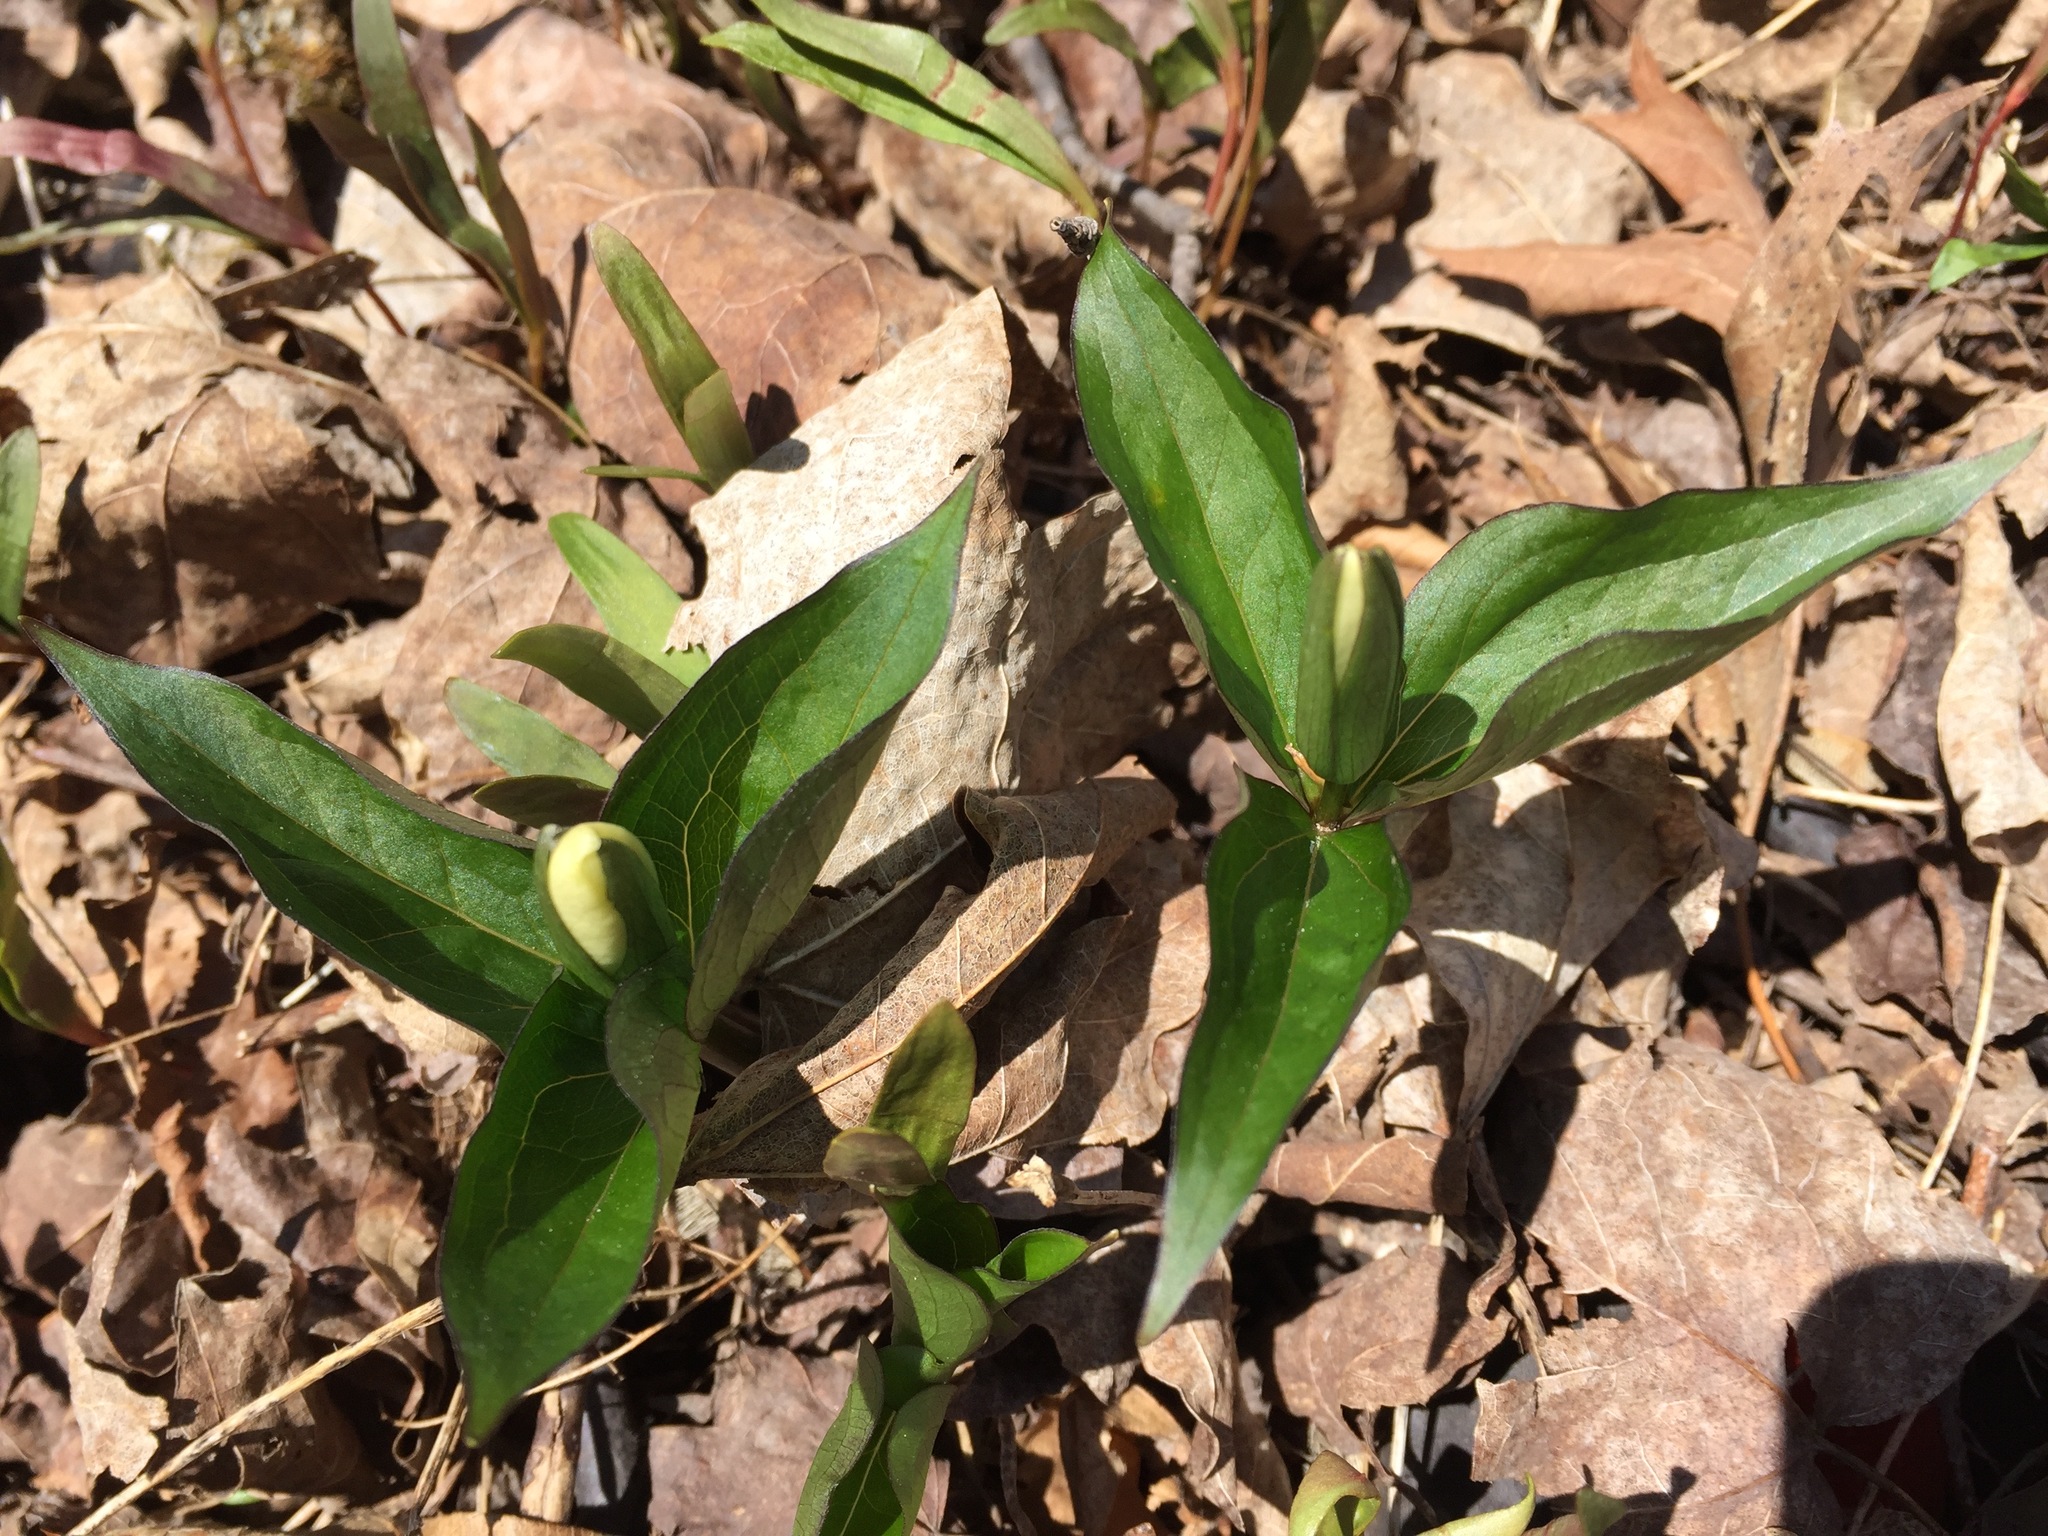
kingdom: Plantae
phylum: Tracheophyta
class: Liliopsida
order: Liliales
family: Melanthiaceae
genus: Trillium
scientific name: Trillium grandiflorum
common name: Great white trillium
